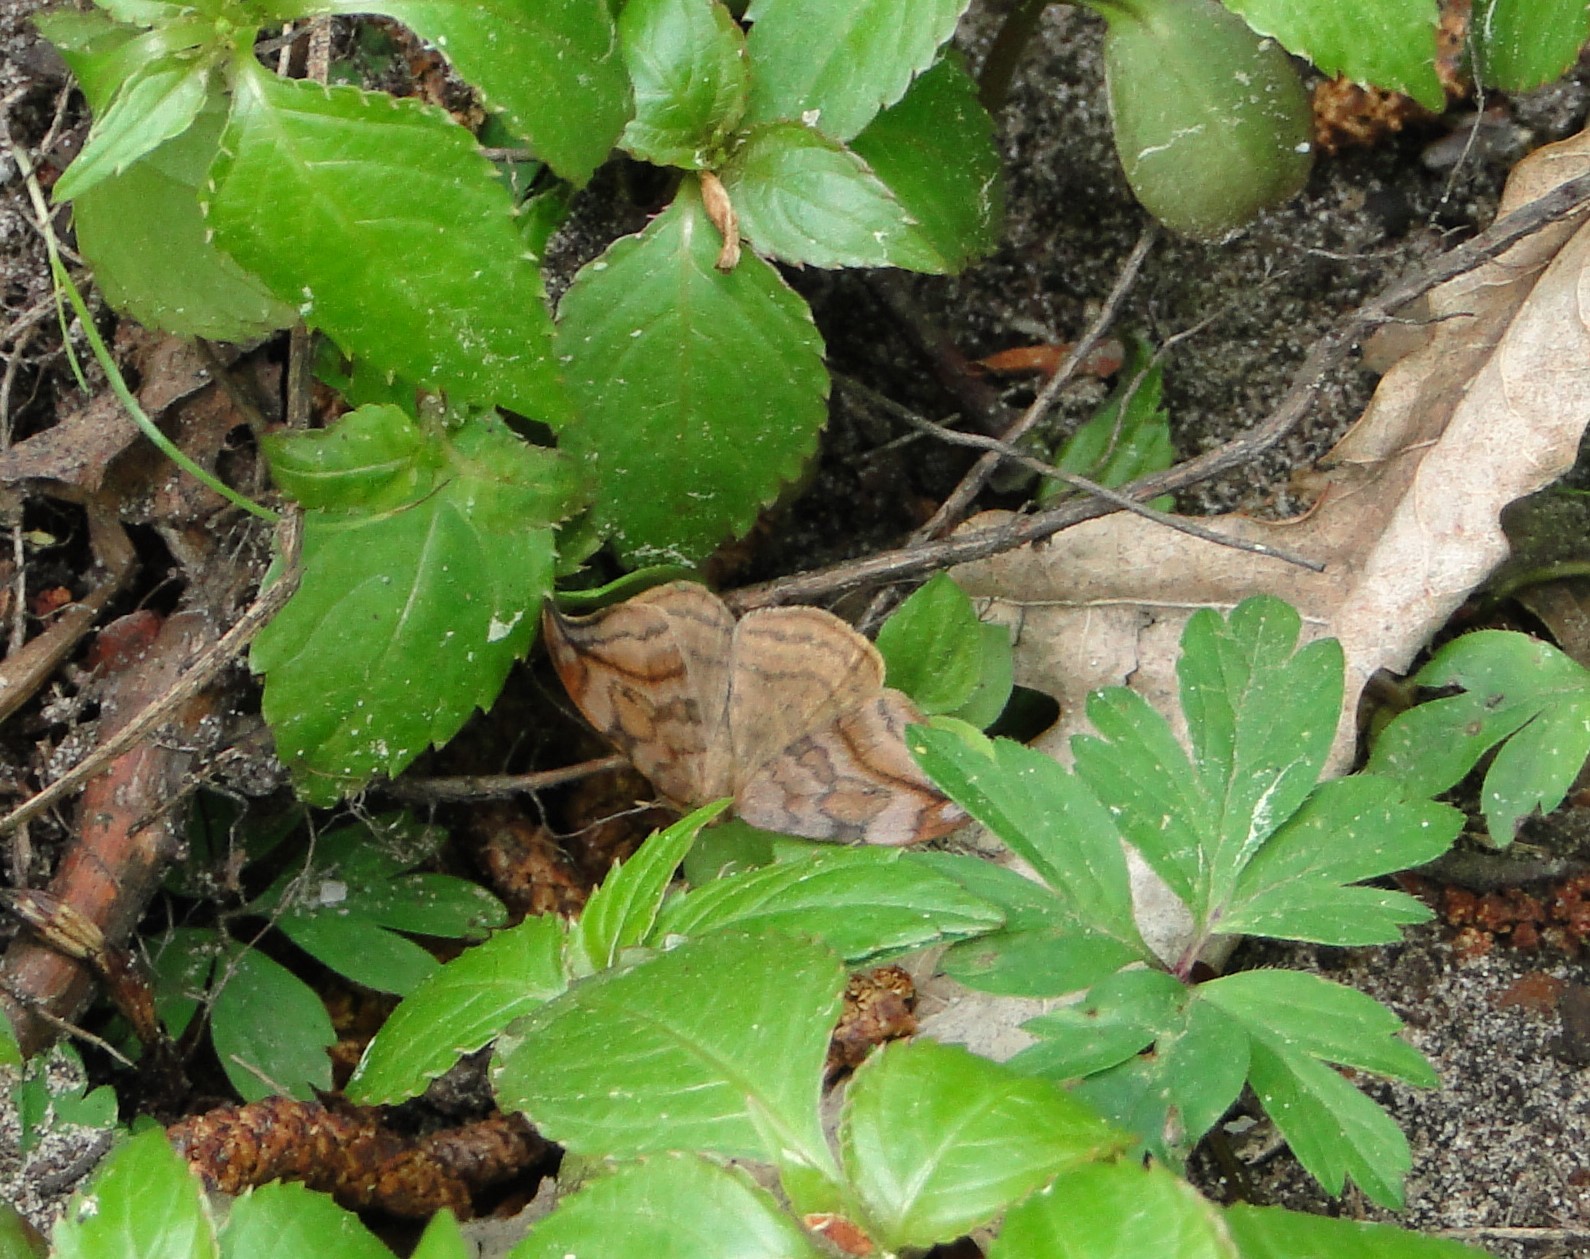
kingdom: Animalia
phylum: Arthropoda
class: Insecta
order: Lepidoptera
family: Drepanidae
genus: Drepana
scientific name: Drepana curvatula
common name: Dusky hook-tip
